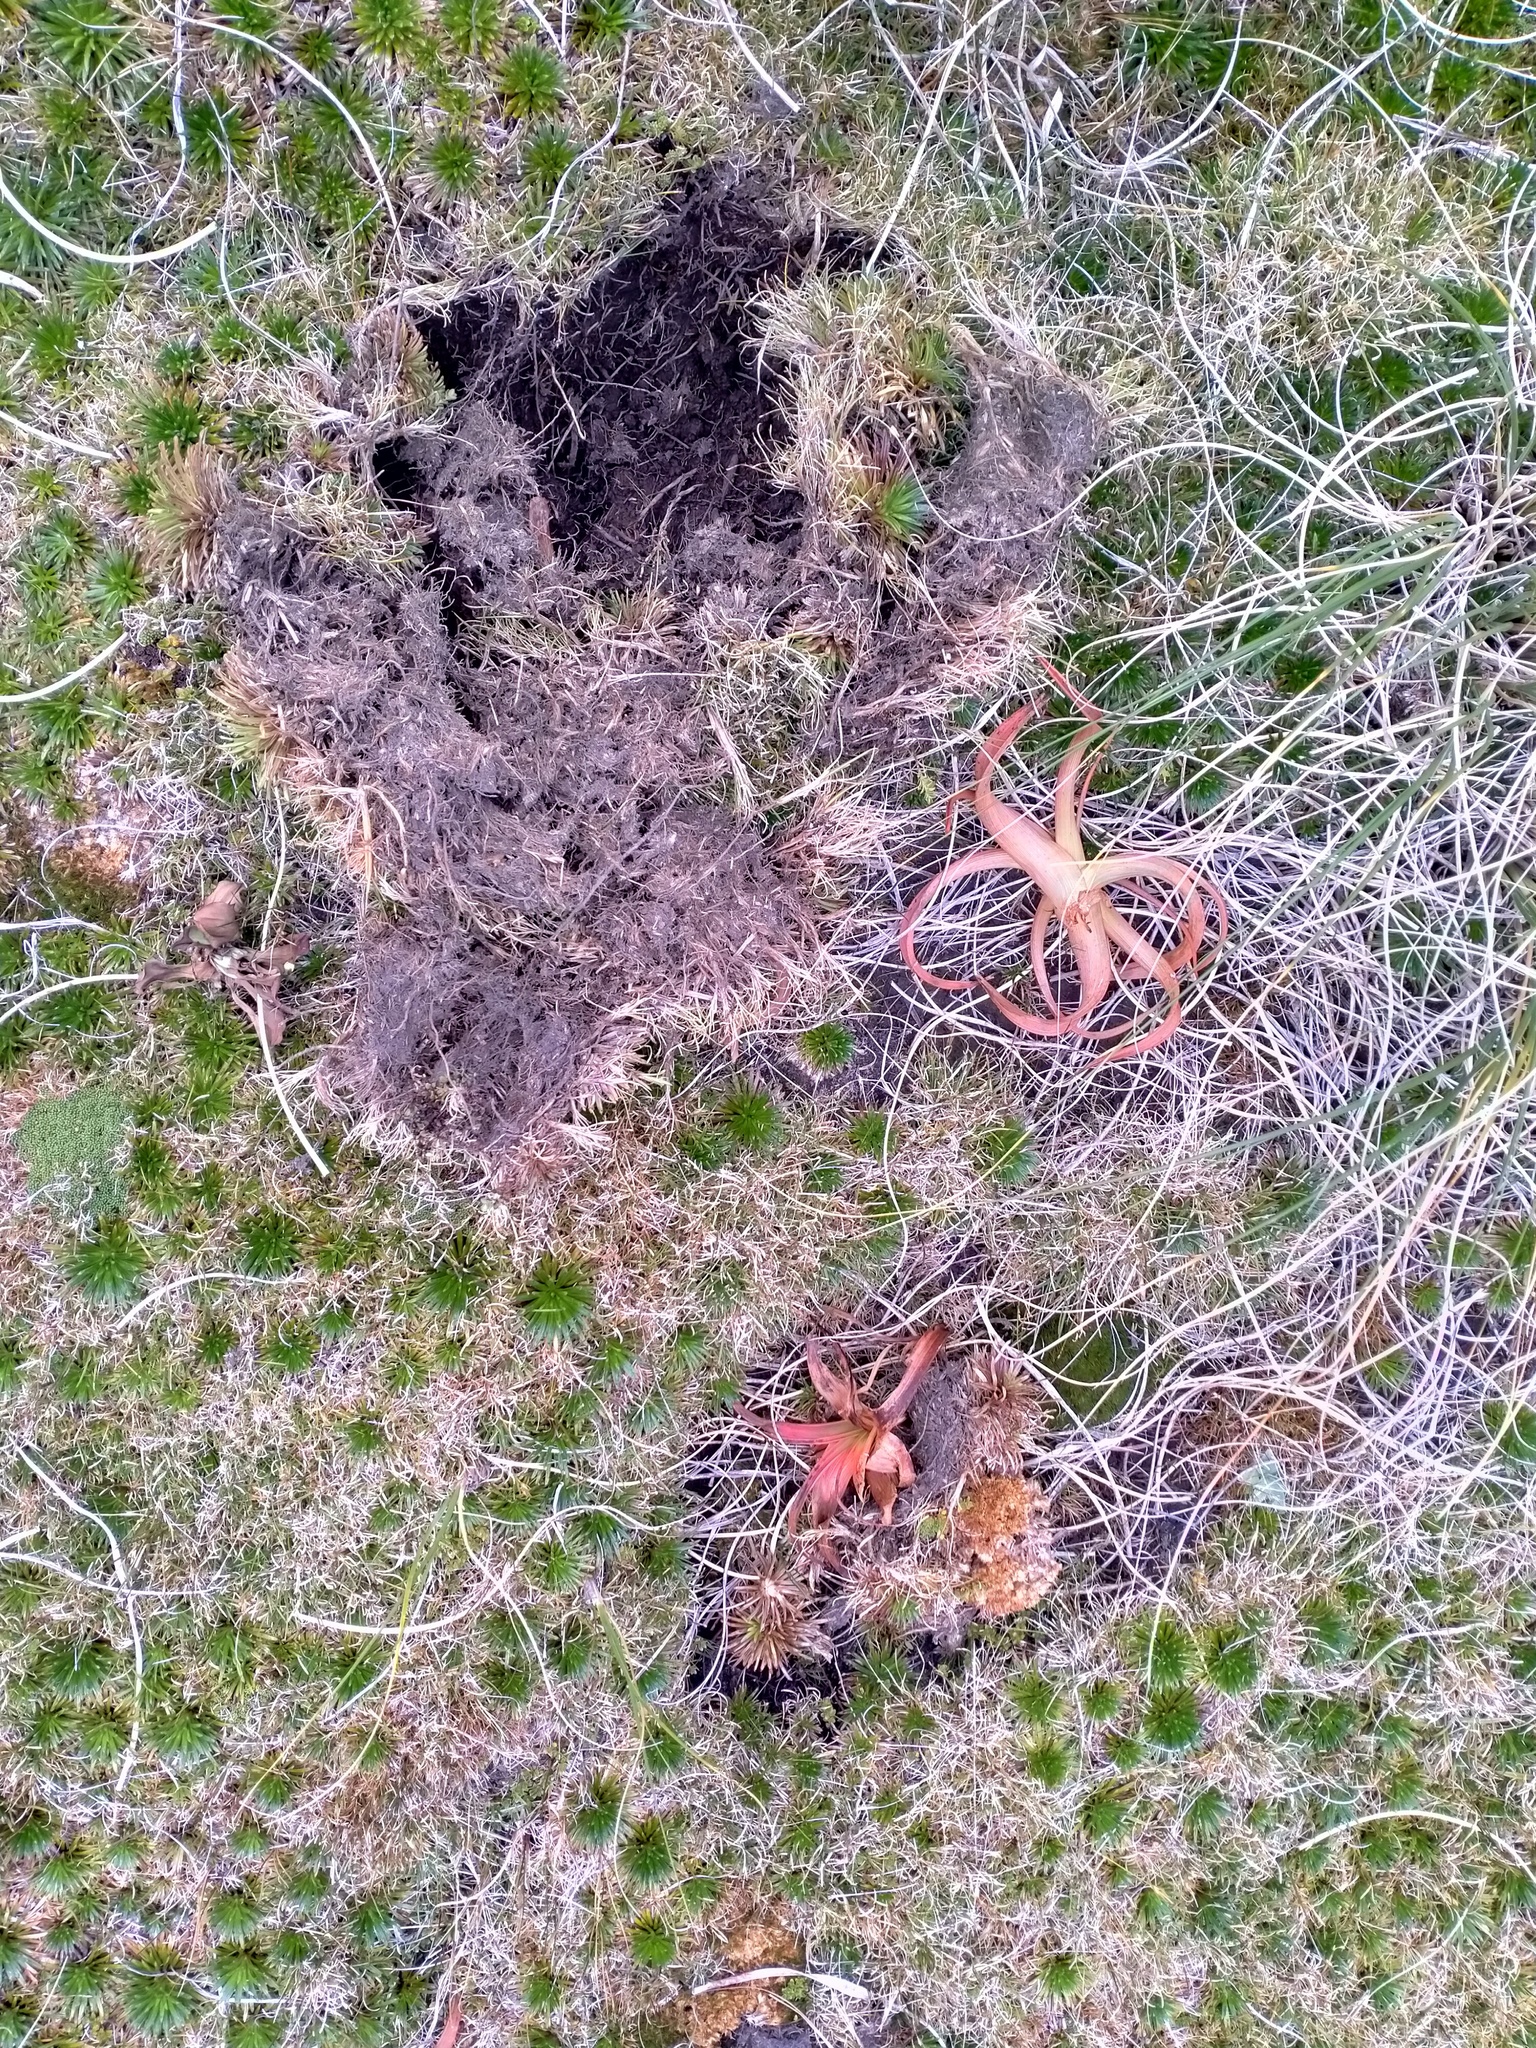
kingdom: Animalia
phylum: Chordata
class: Mammalia
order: Artiodactyla
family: Suidae
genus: Sus
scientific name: Sus scrofa
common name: Wild boar
